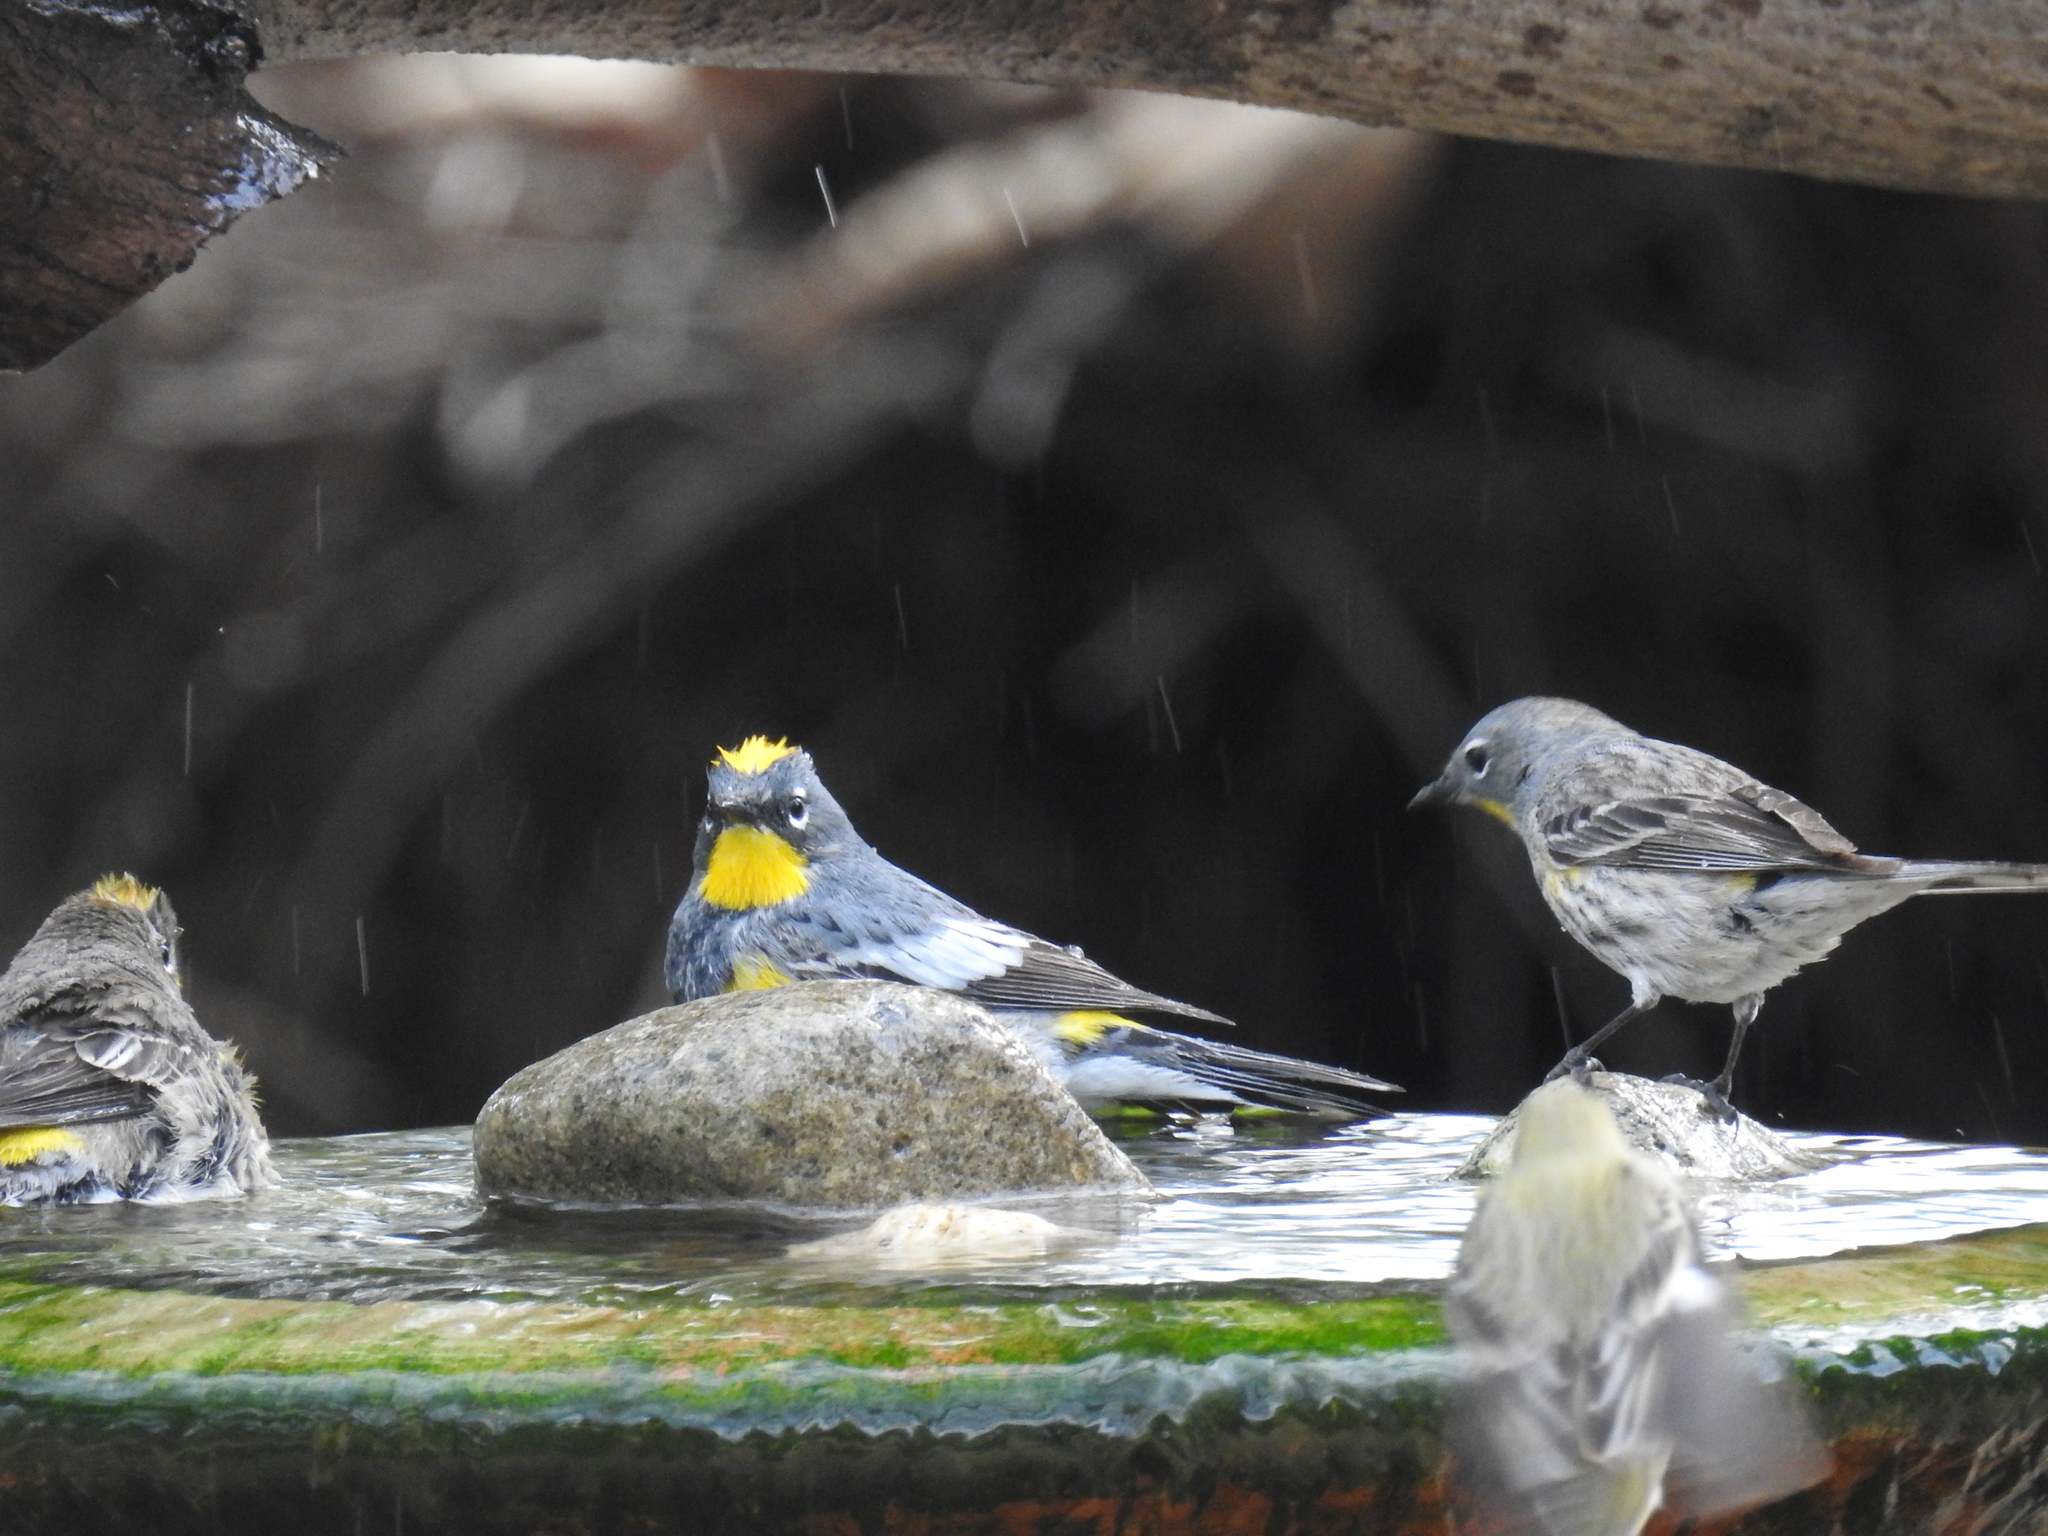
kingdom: Animalia
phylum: Chordata
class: Aves
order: Passeriformes
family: Parulidae
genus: Setophaga
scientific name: Setophaga coronata
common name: Myrtle warbler
